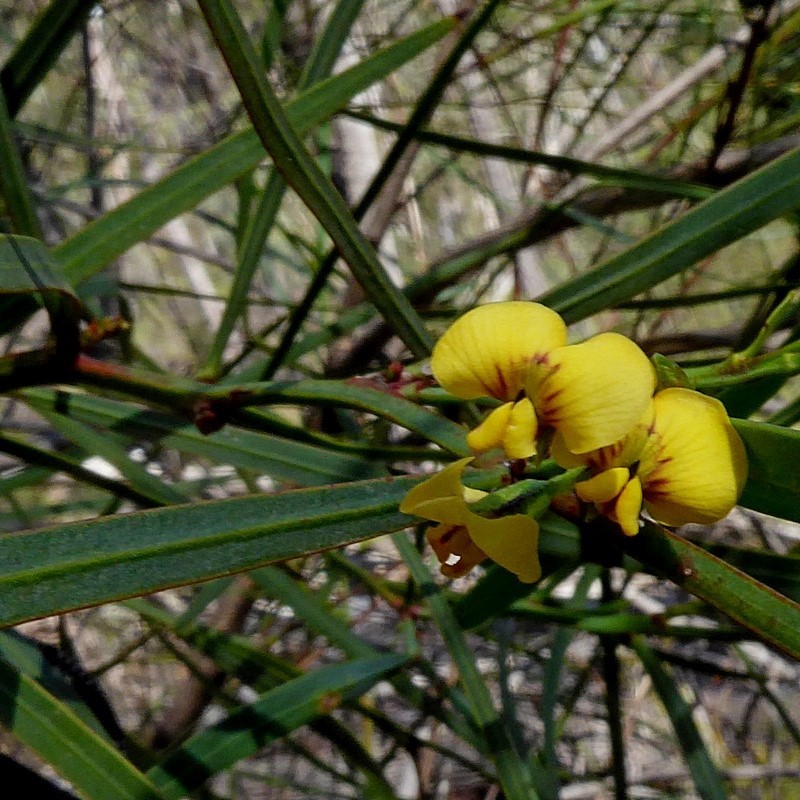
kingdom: Plantae
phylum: Tracheophyta
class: Magnoliopsida
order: Fabales
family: Fabaceae
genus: Daviesia
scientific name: Daviesia wyattiana
